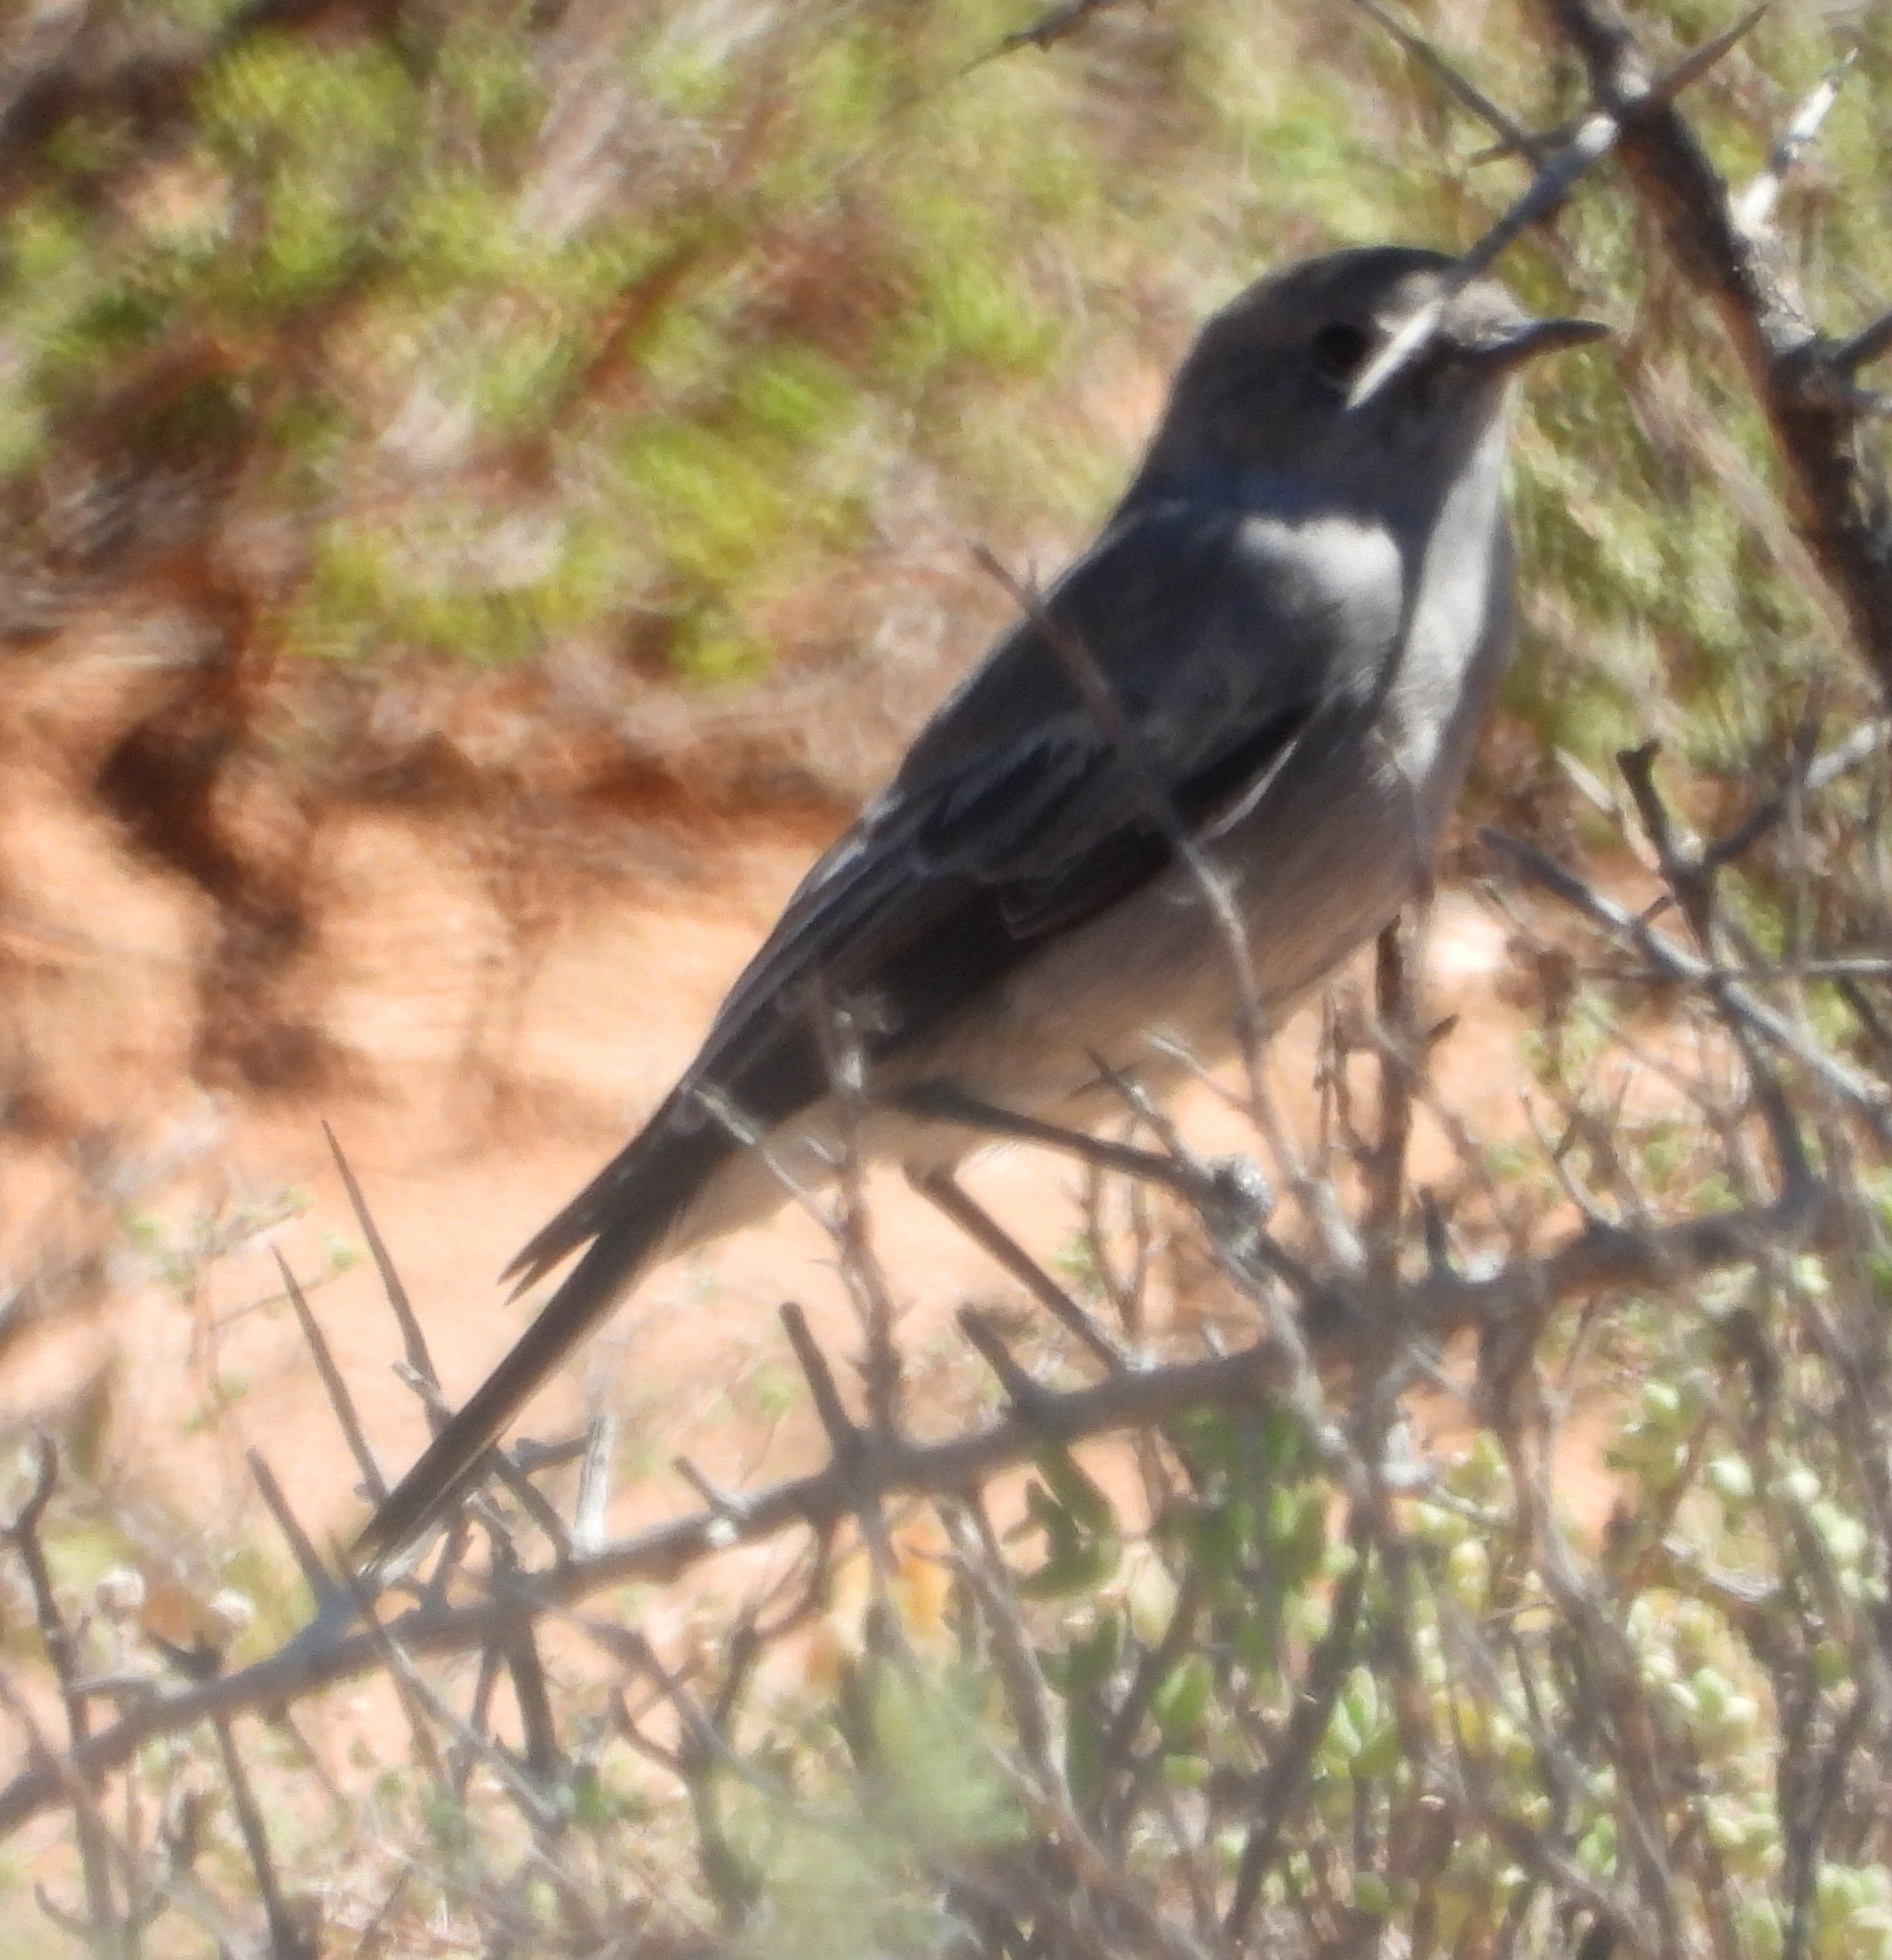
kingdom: Animalia
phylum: Chordata
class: Aves
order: Passeriformes
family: Muscicapidae
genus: Emarginata
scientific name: Emarginata schlegelii
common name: Karoo chat
